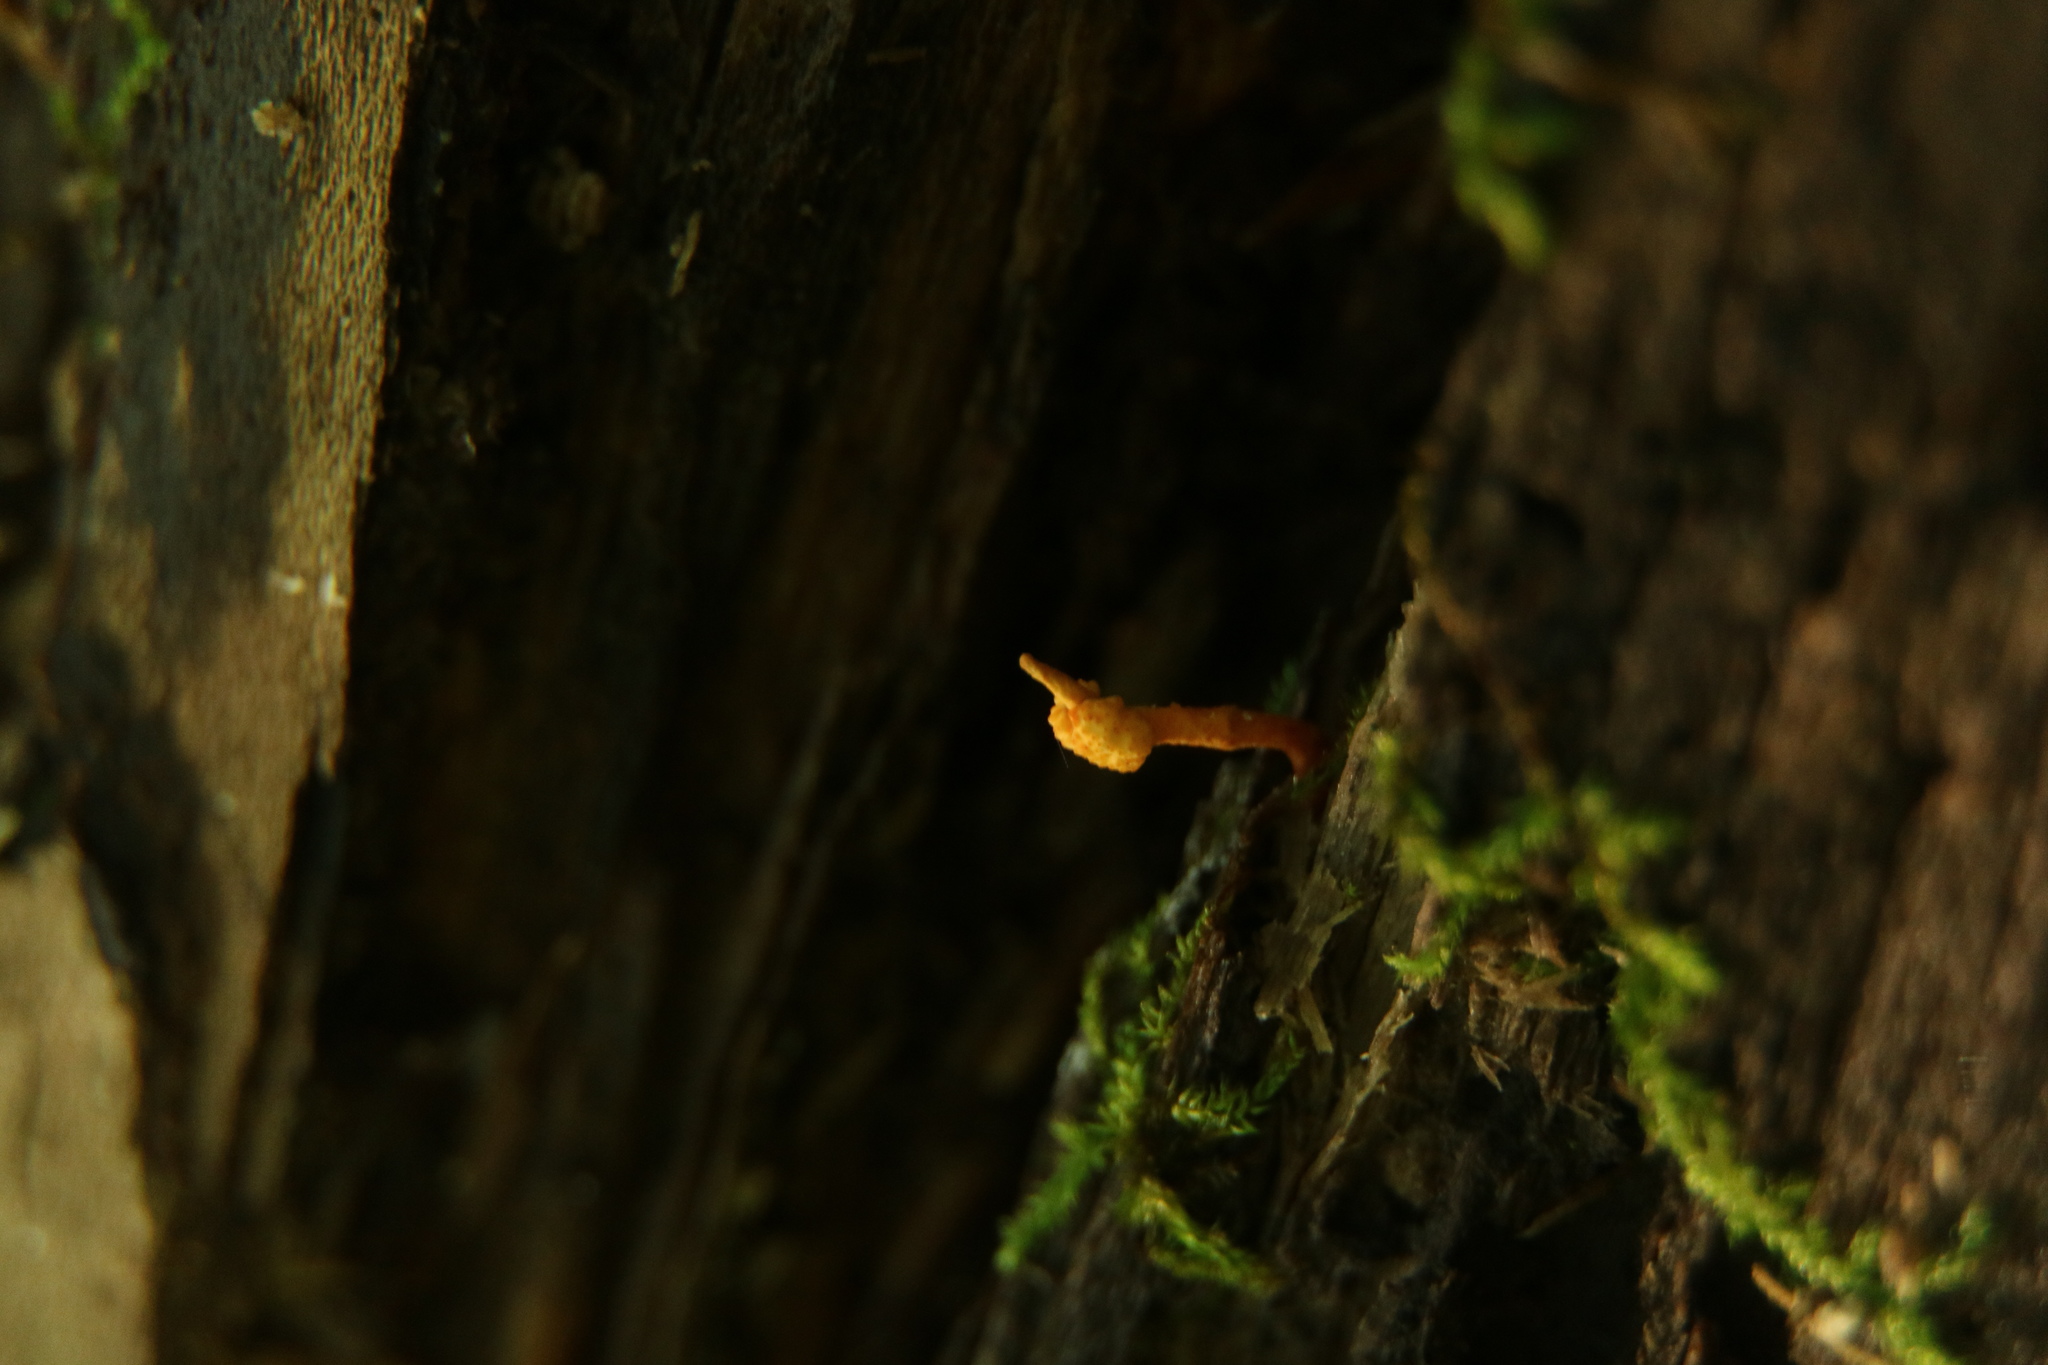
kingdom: Fungi
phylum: Ascomycota
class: Sordariomycetes
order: Hypocreales
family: Ophiocordycipitaceae
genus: Ophiocordyceps
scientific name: Ophiocordyceps variabilis
